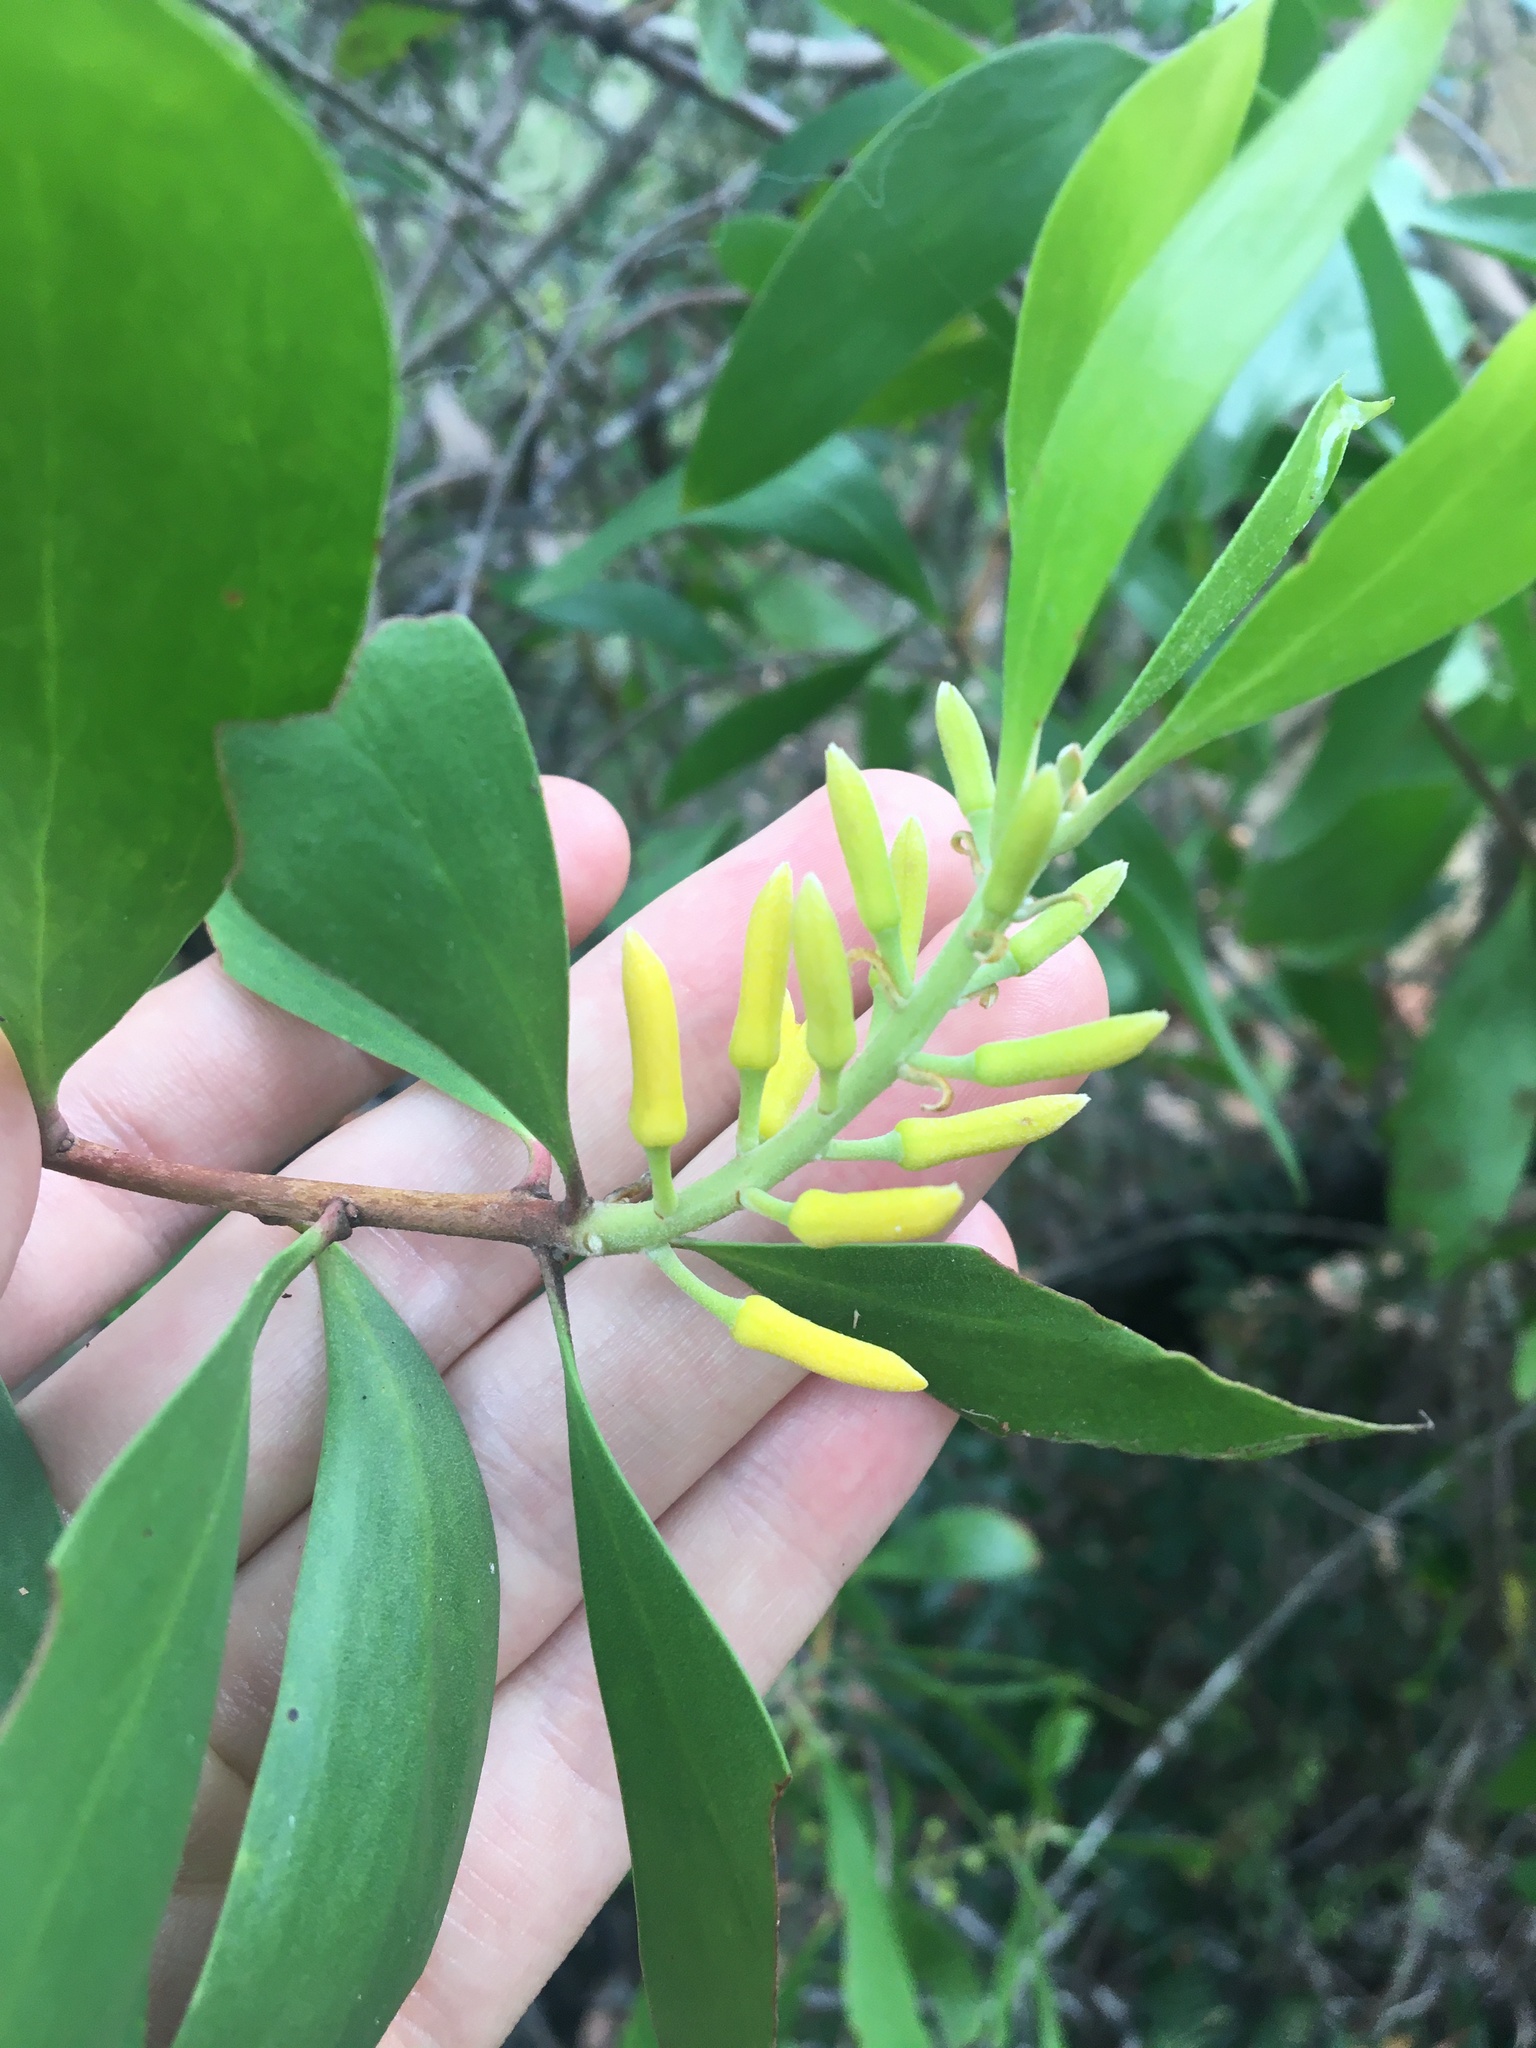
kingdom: Plantae
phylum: Tracheophyta
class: Magnoliopsida
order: Proteales
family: Proteaceae
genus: Persoonia
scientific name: Persoonia levis
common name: Smooth geebung
